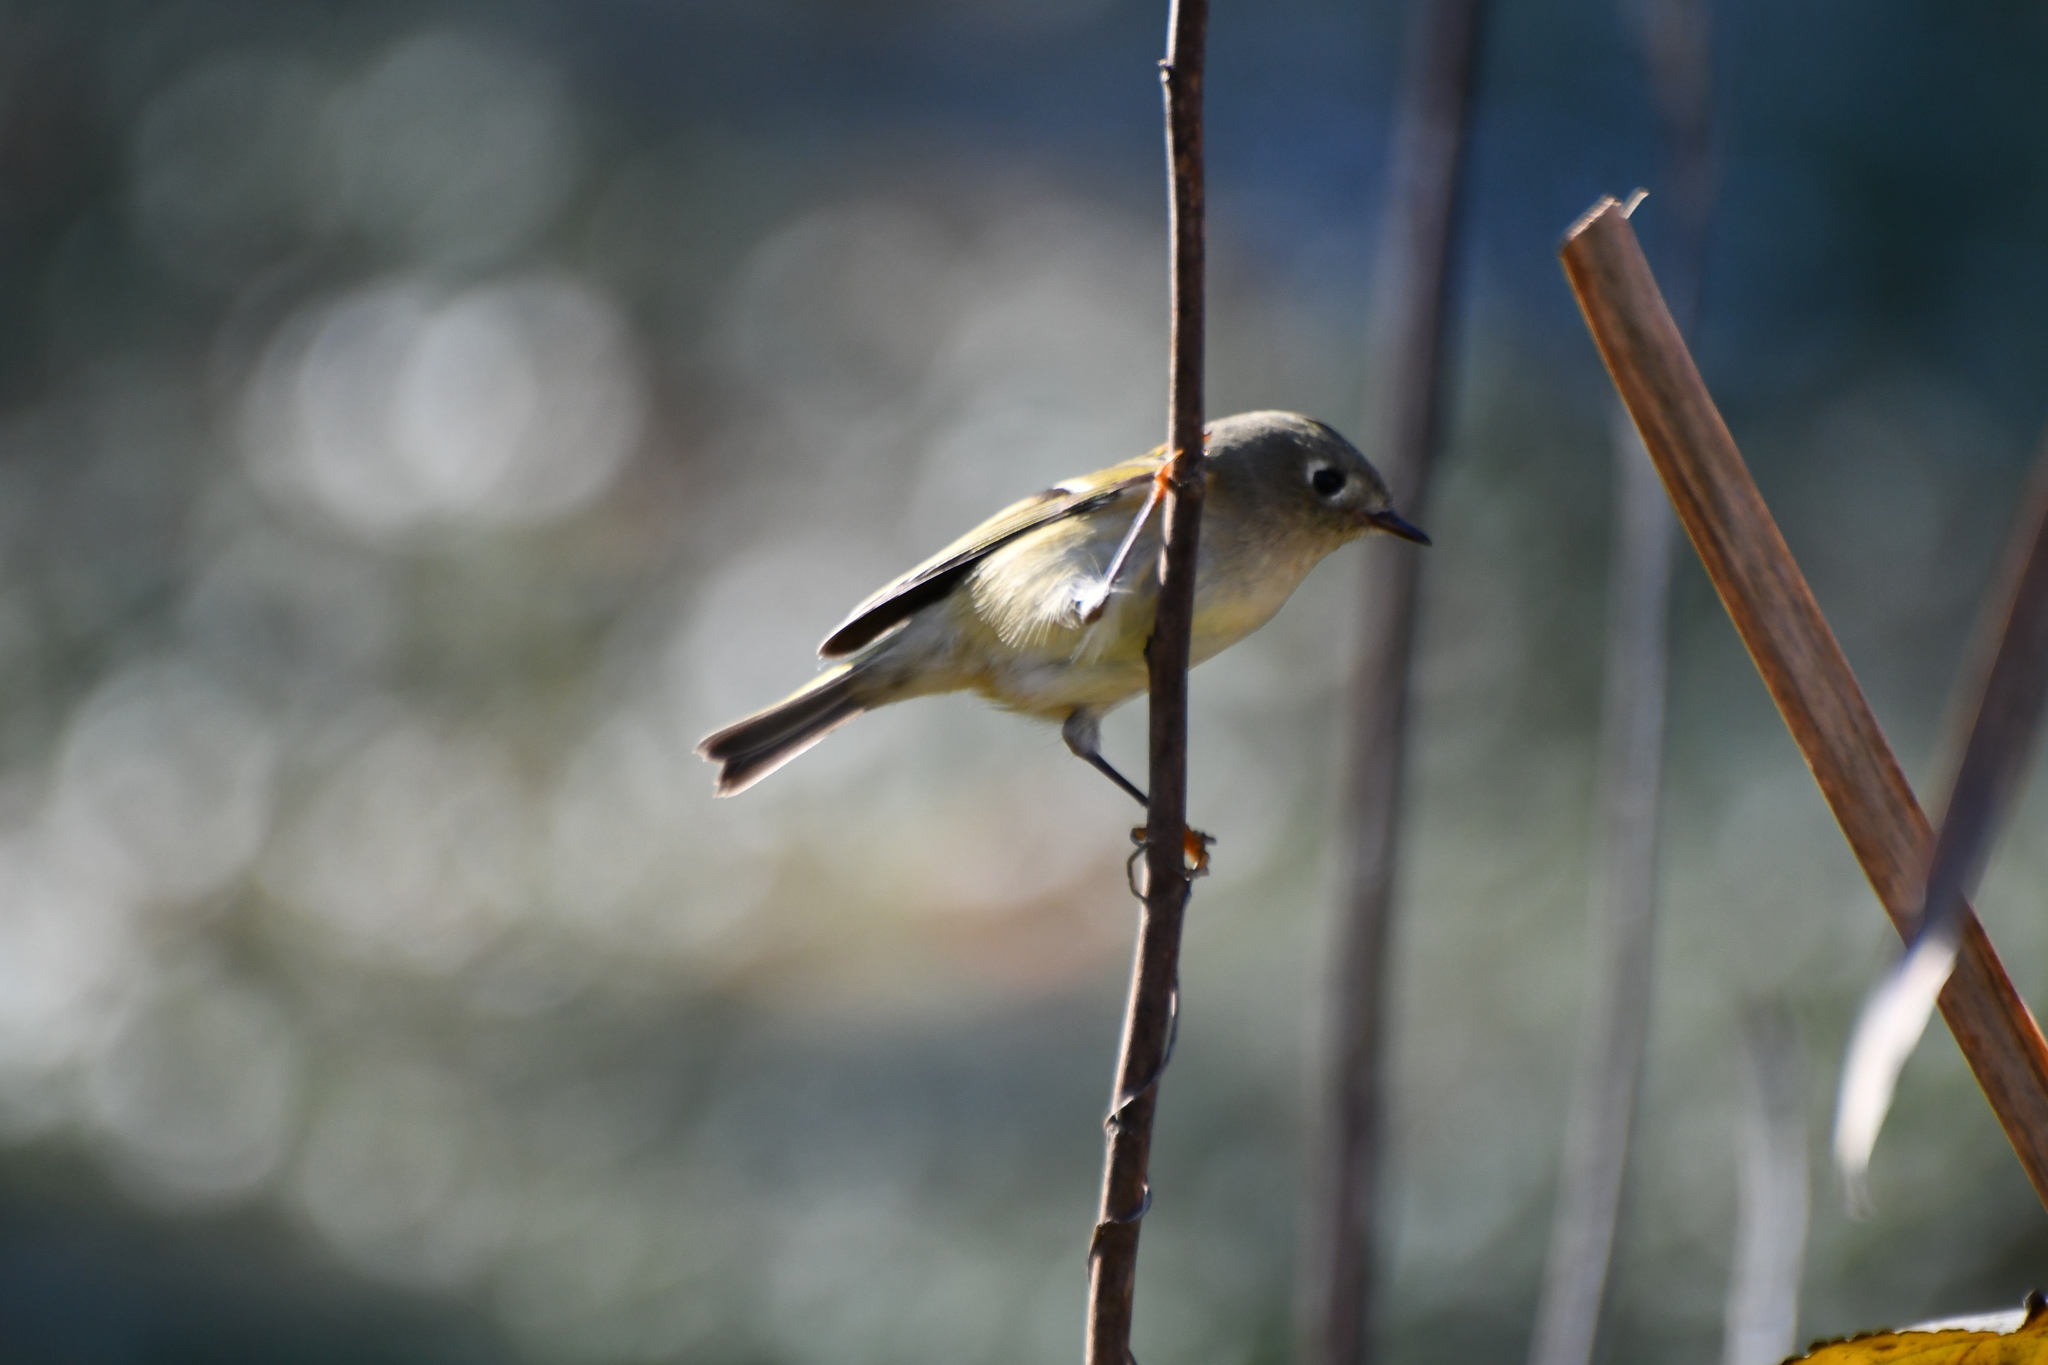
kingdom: Animalia
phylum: Chordata
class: Aves
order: Passeriformes
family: Regulidae
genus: Regulus
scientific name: Regulus calendula
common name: Ruby-crowned kinglet
